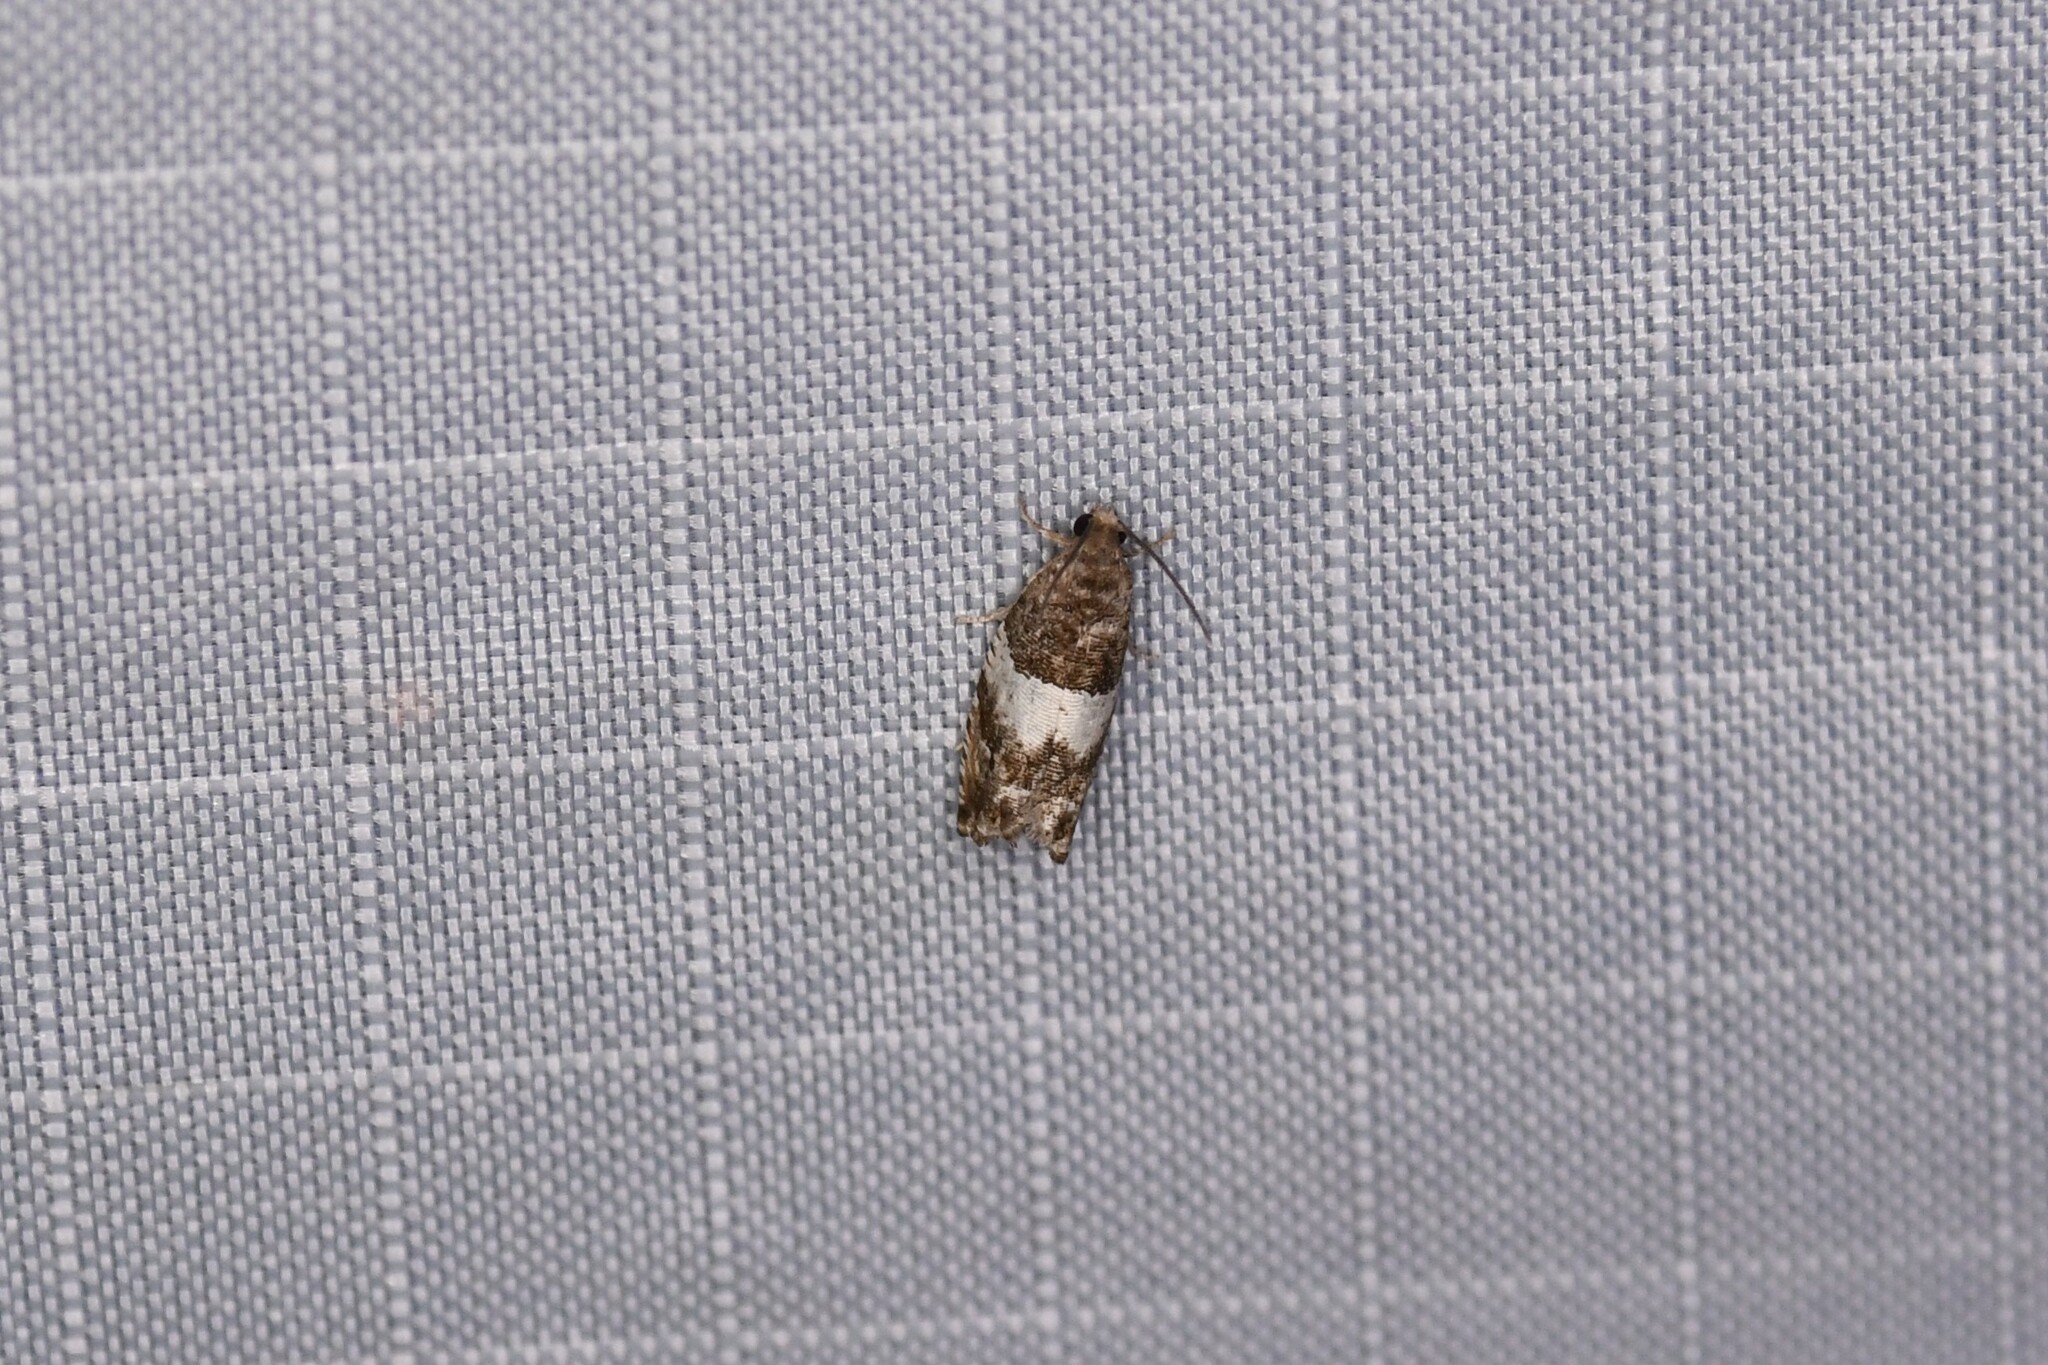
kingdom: Animalia
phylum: Arthropoda
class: Insecta
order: Lepidoptera
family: Tortricidae
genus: Gypsonoma
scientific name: Gypsonoma substitutionis
